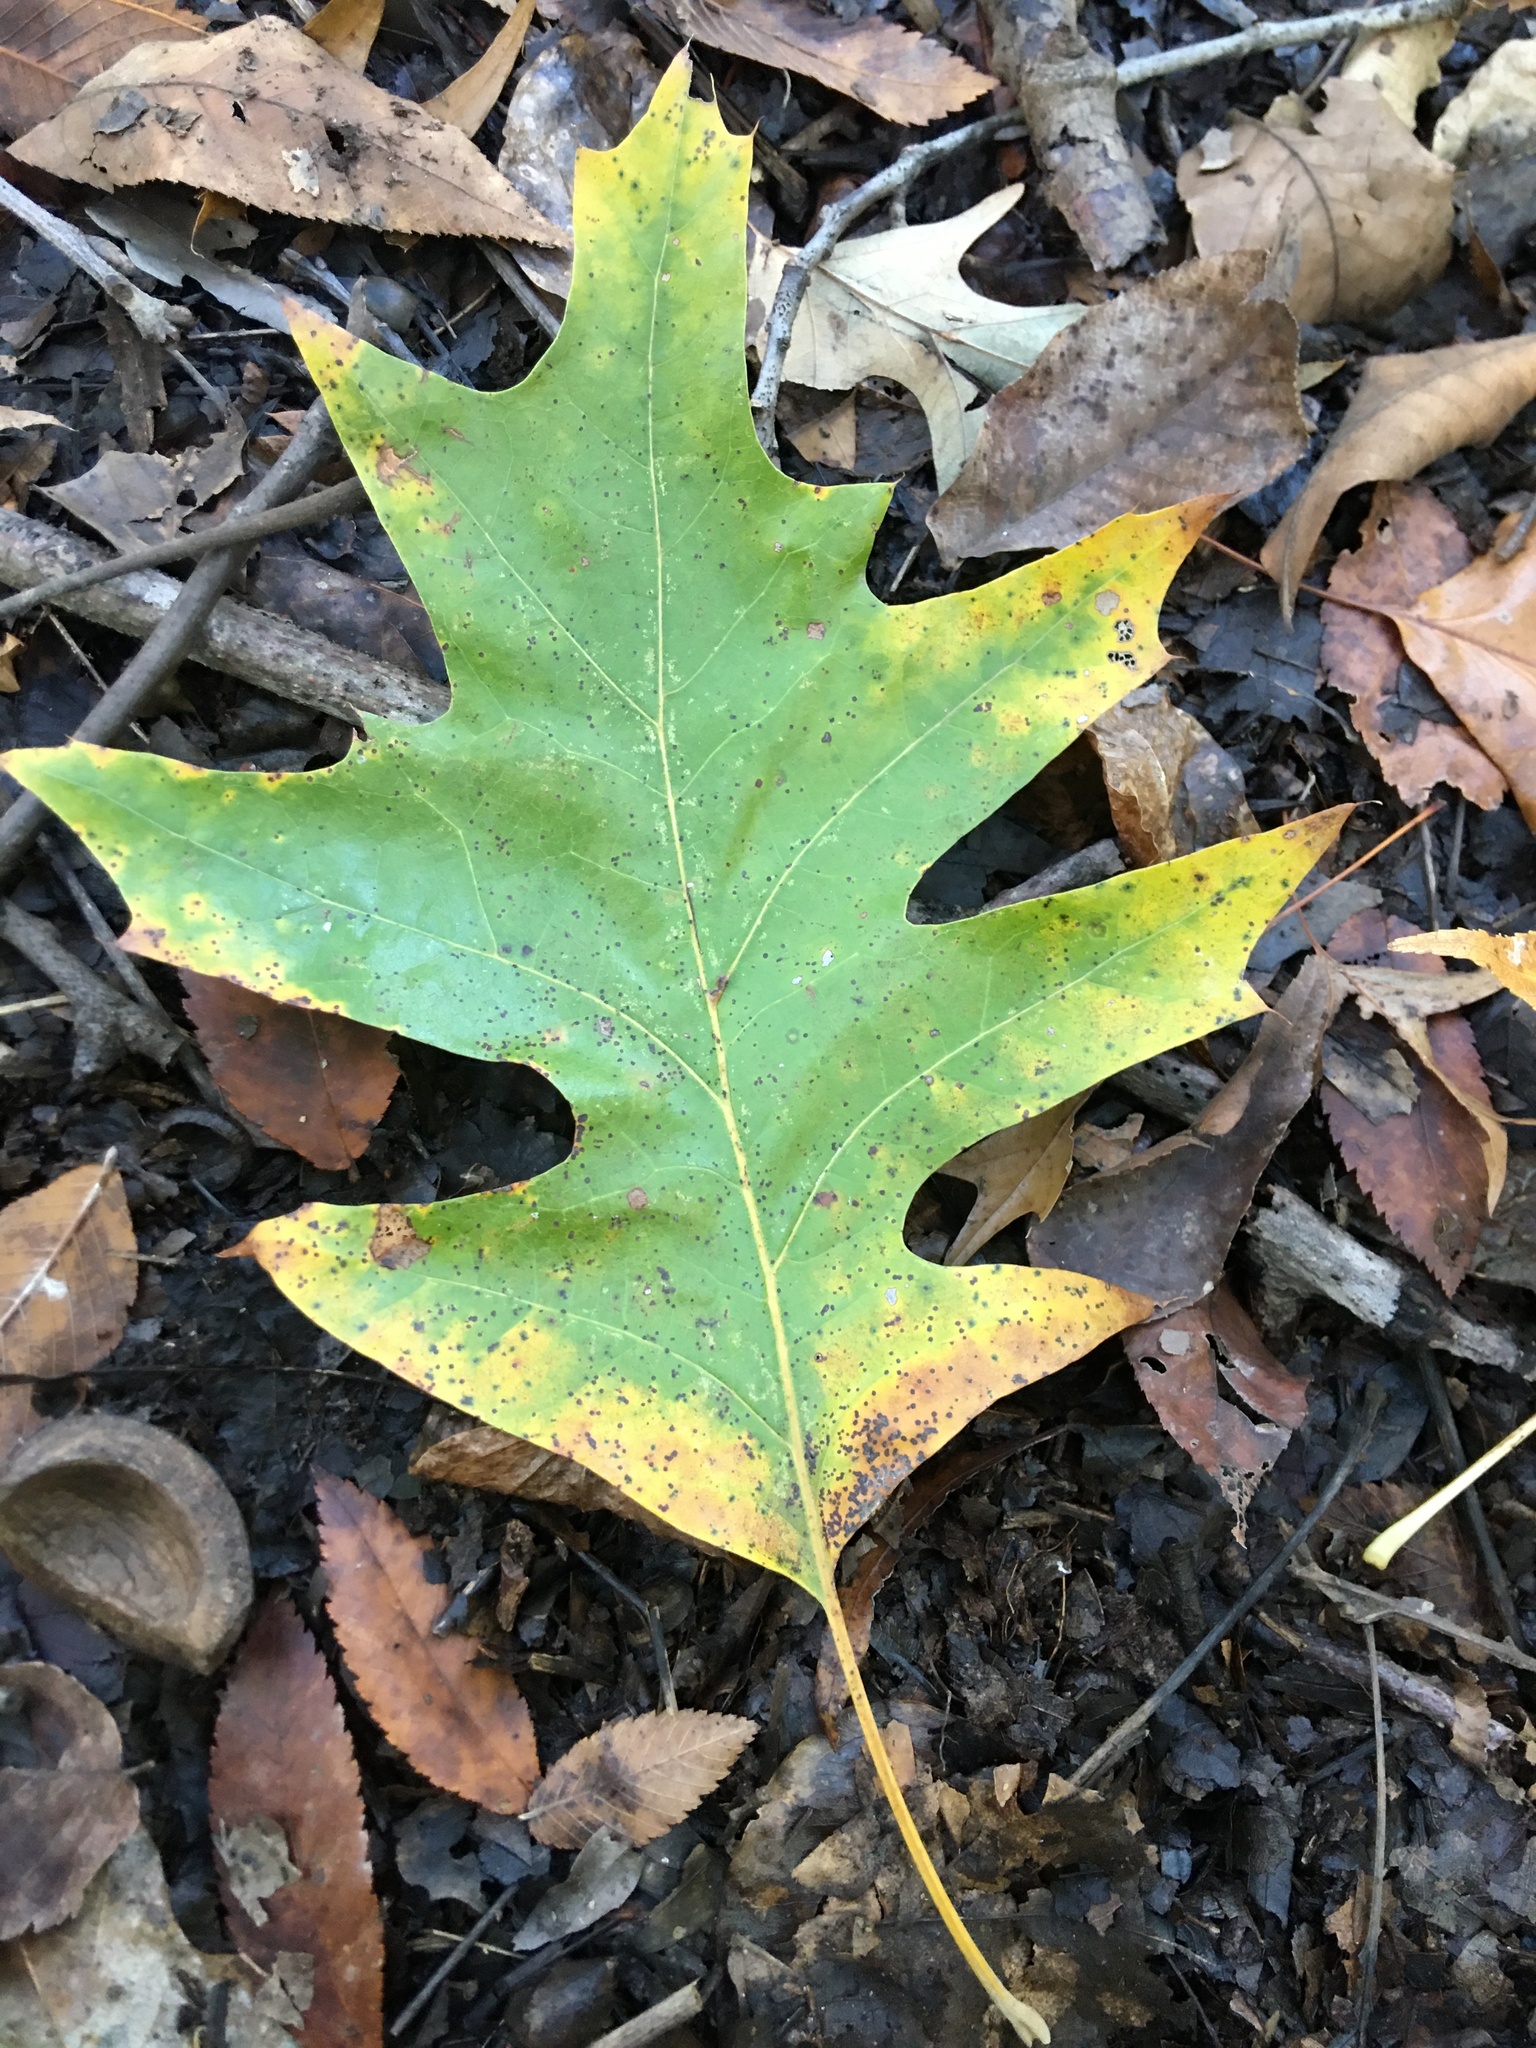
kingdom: Plantae
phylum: Tracheophyta
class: Magnoliopsida
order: Fagales
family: Fagaceae
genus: Quercus
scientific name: Quercus pagoda
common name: Cherrybark oak
